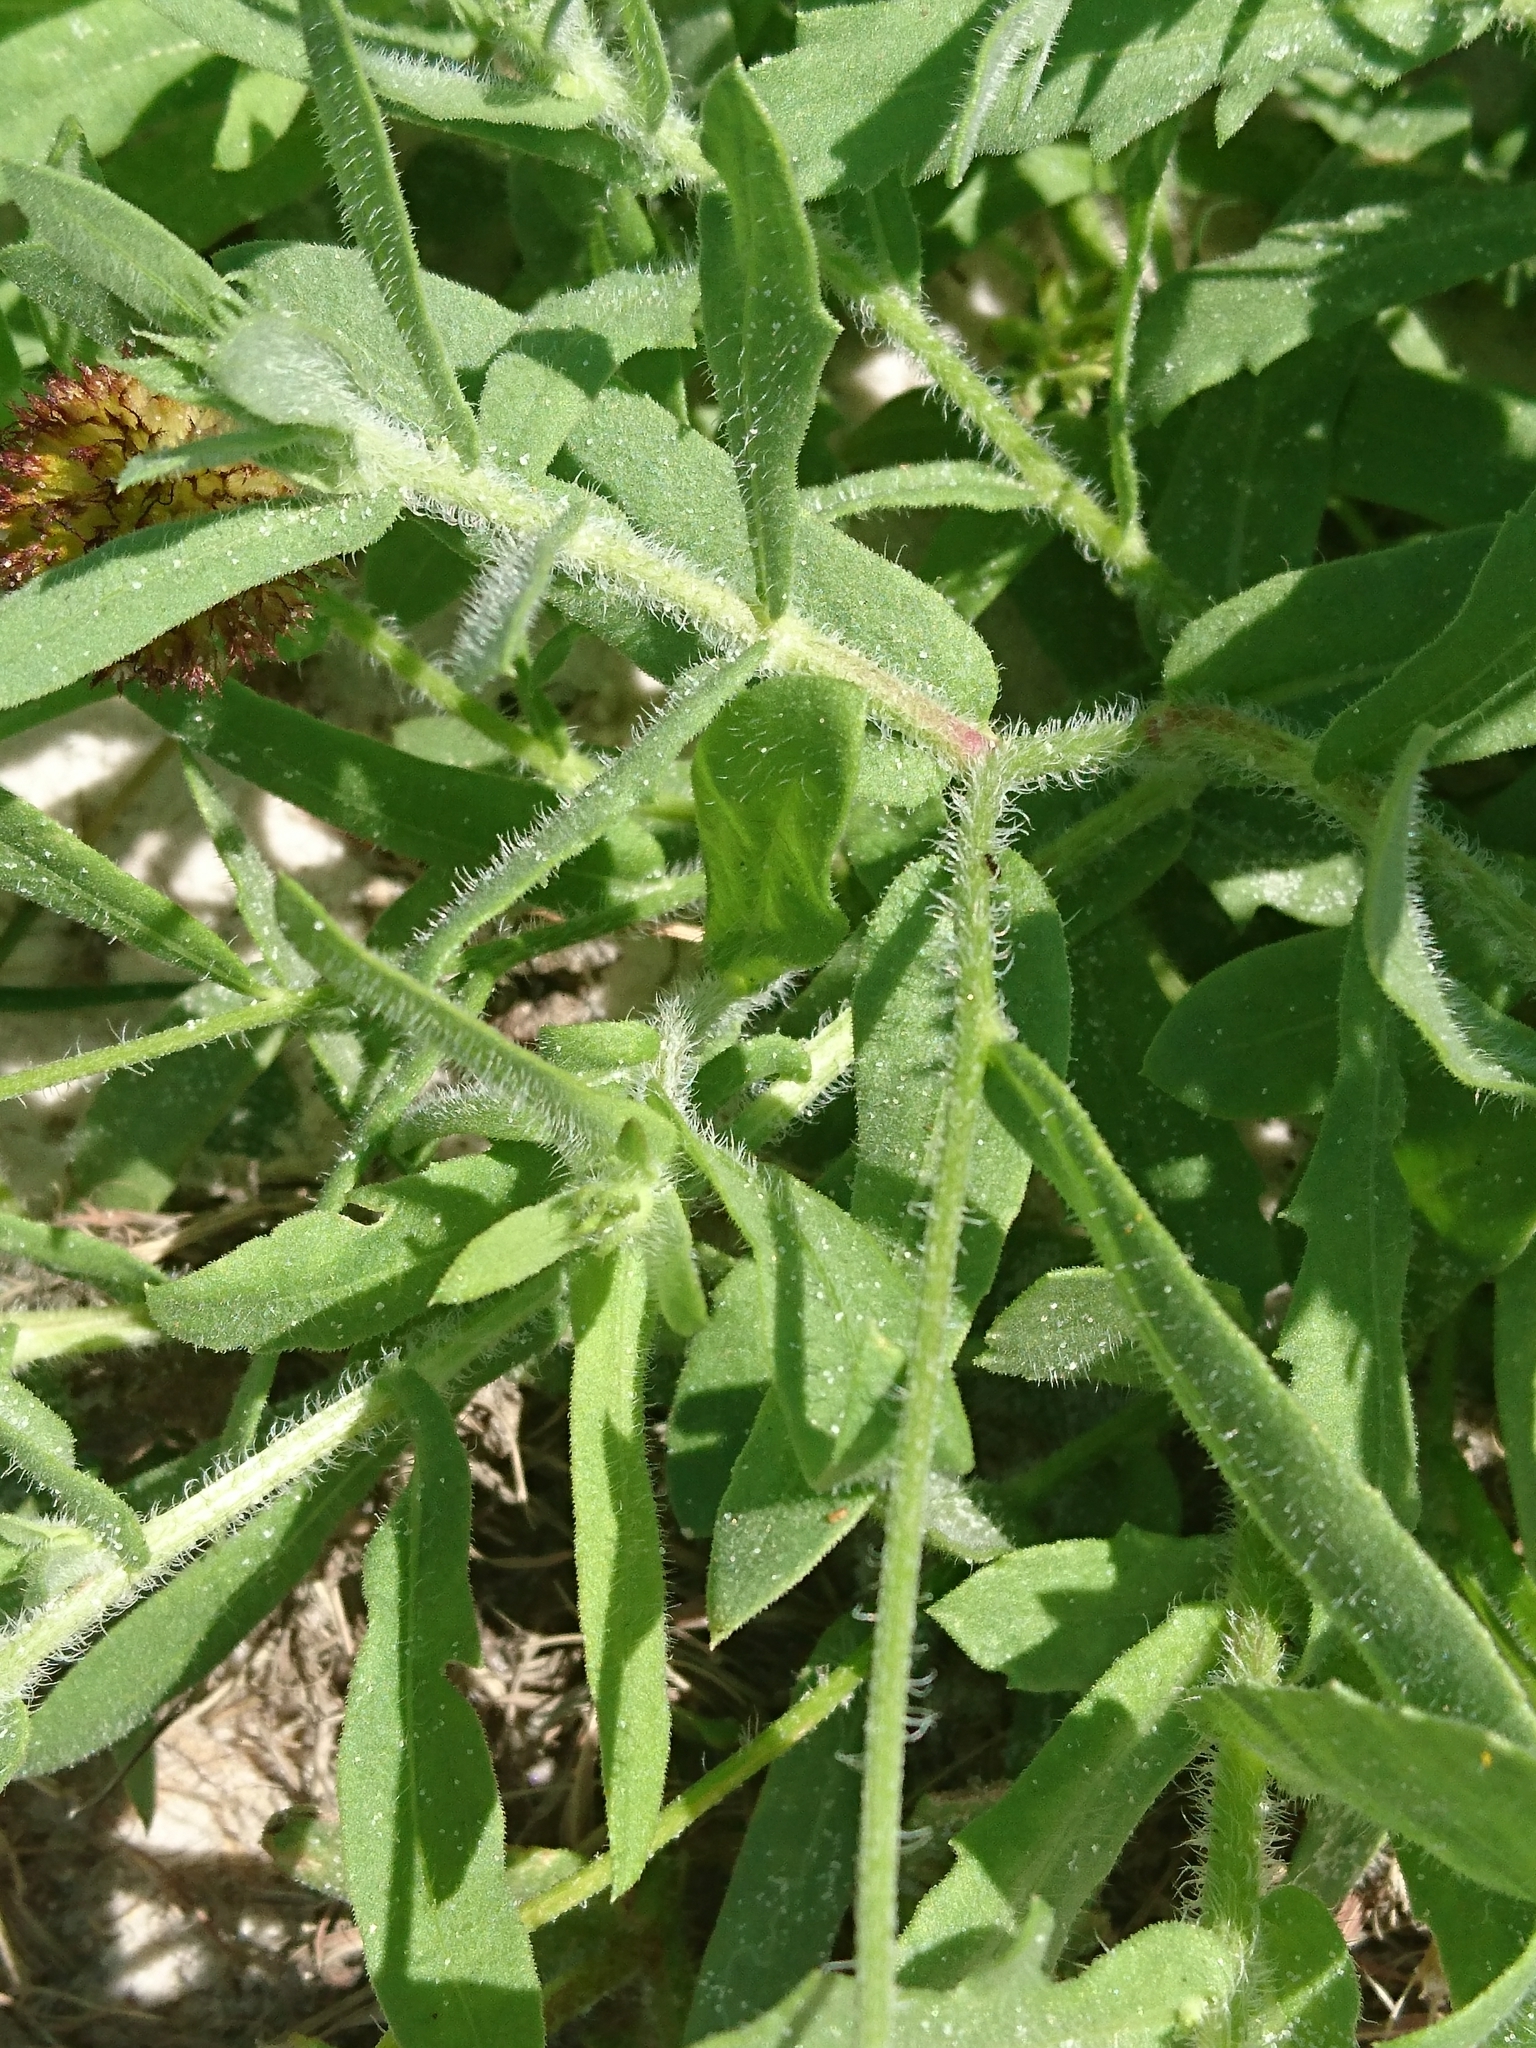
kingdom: Plantae
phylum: Tracheophyta
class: Magnoliopsida
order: Asterales
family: Asteraceae
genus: Gaillardia
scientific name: Gaillardia pulchella
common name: Firewheel
